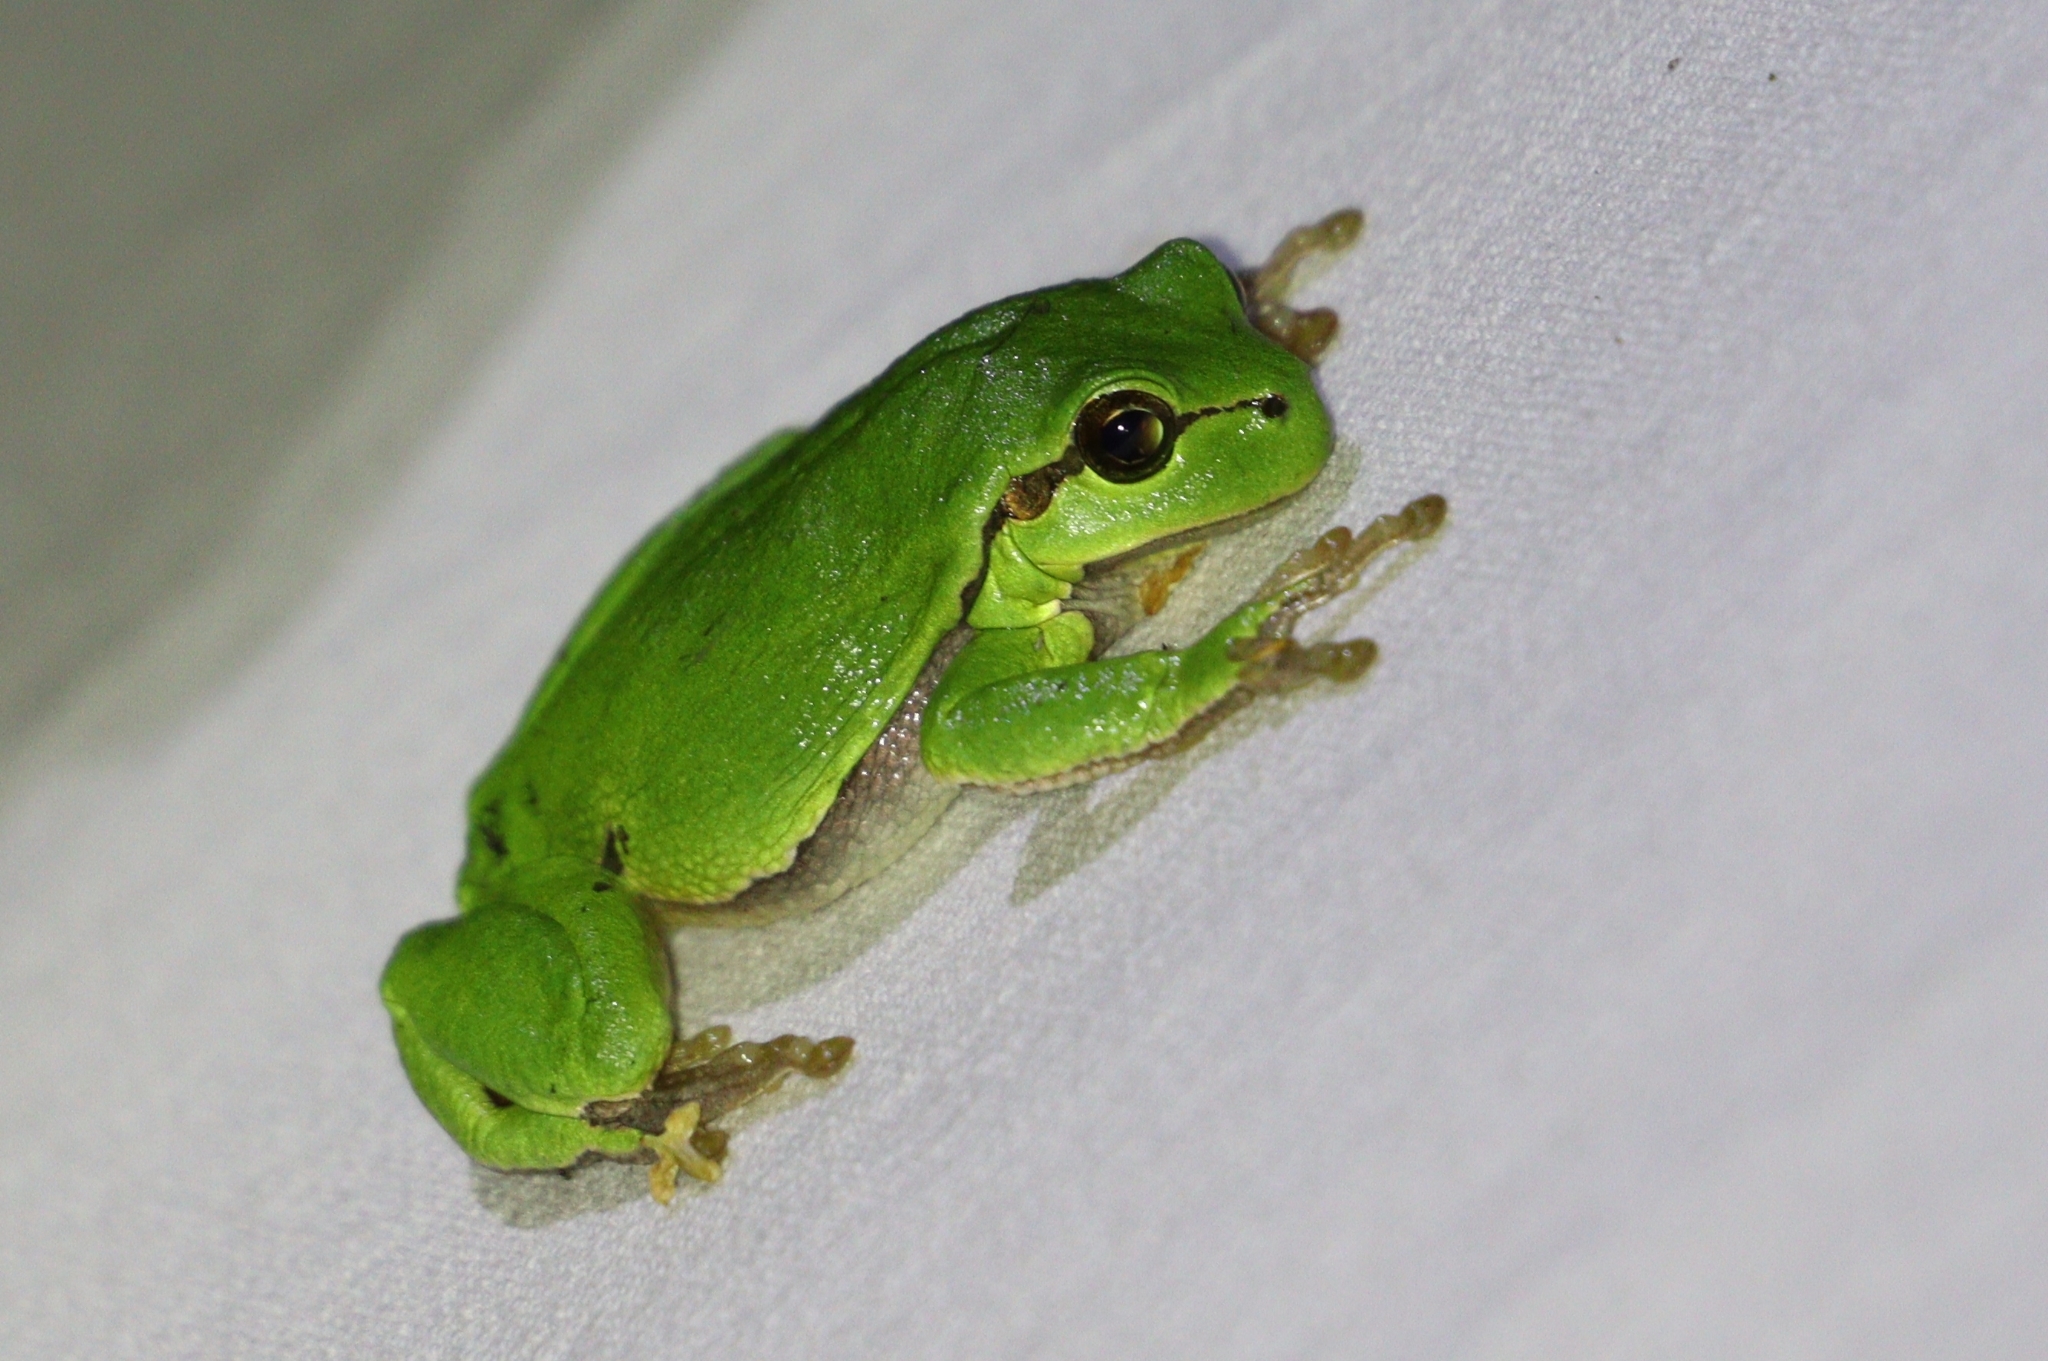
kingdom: Animalia
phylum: Chordata
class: Amphibia
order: Anura
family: Hylidae
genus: Hyla
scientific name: Hyla arborea
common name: Common tree frog
